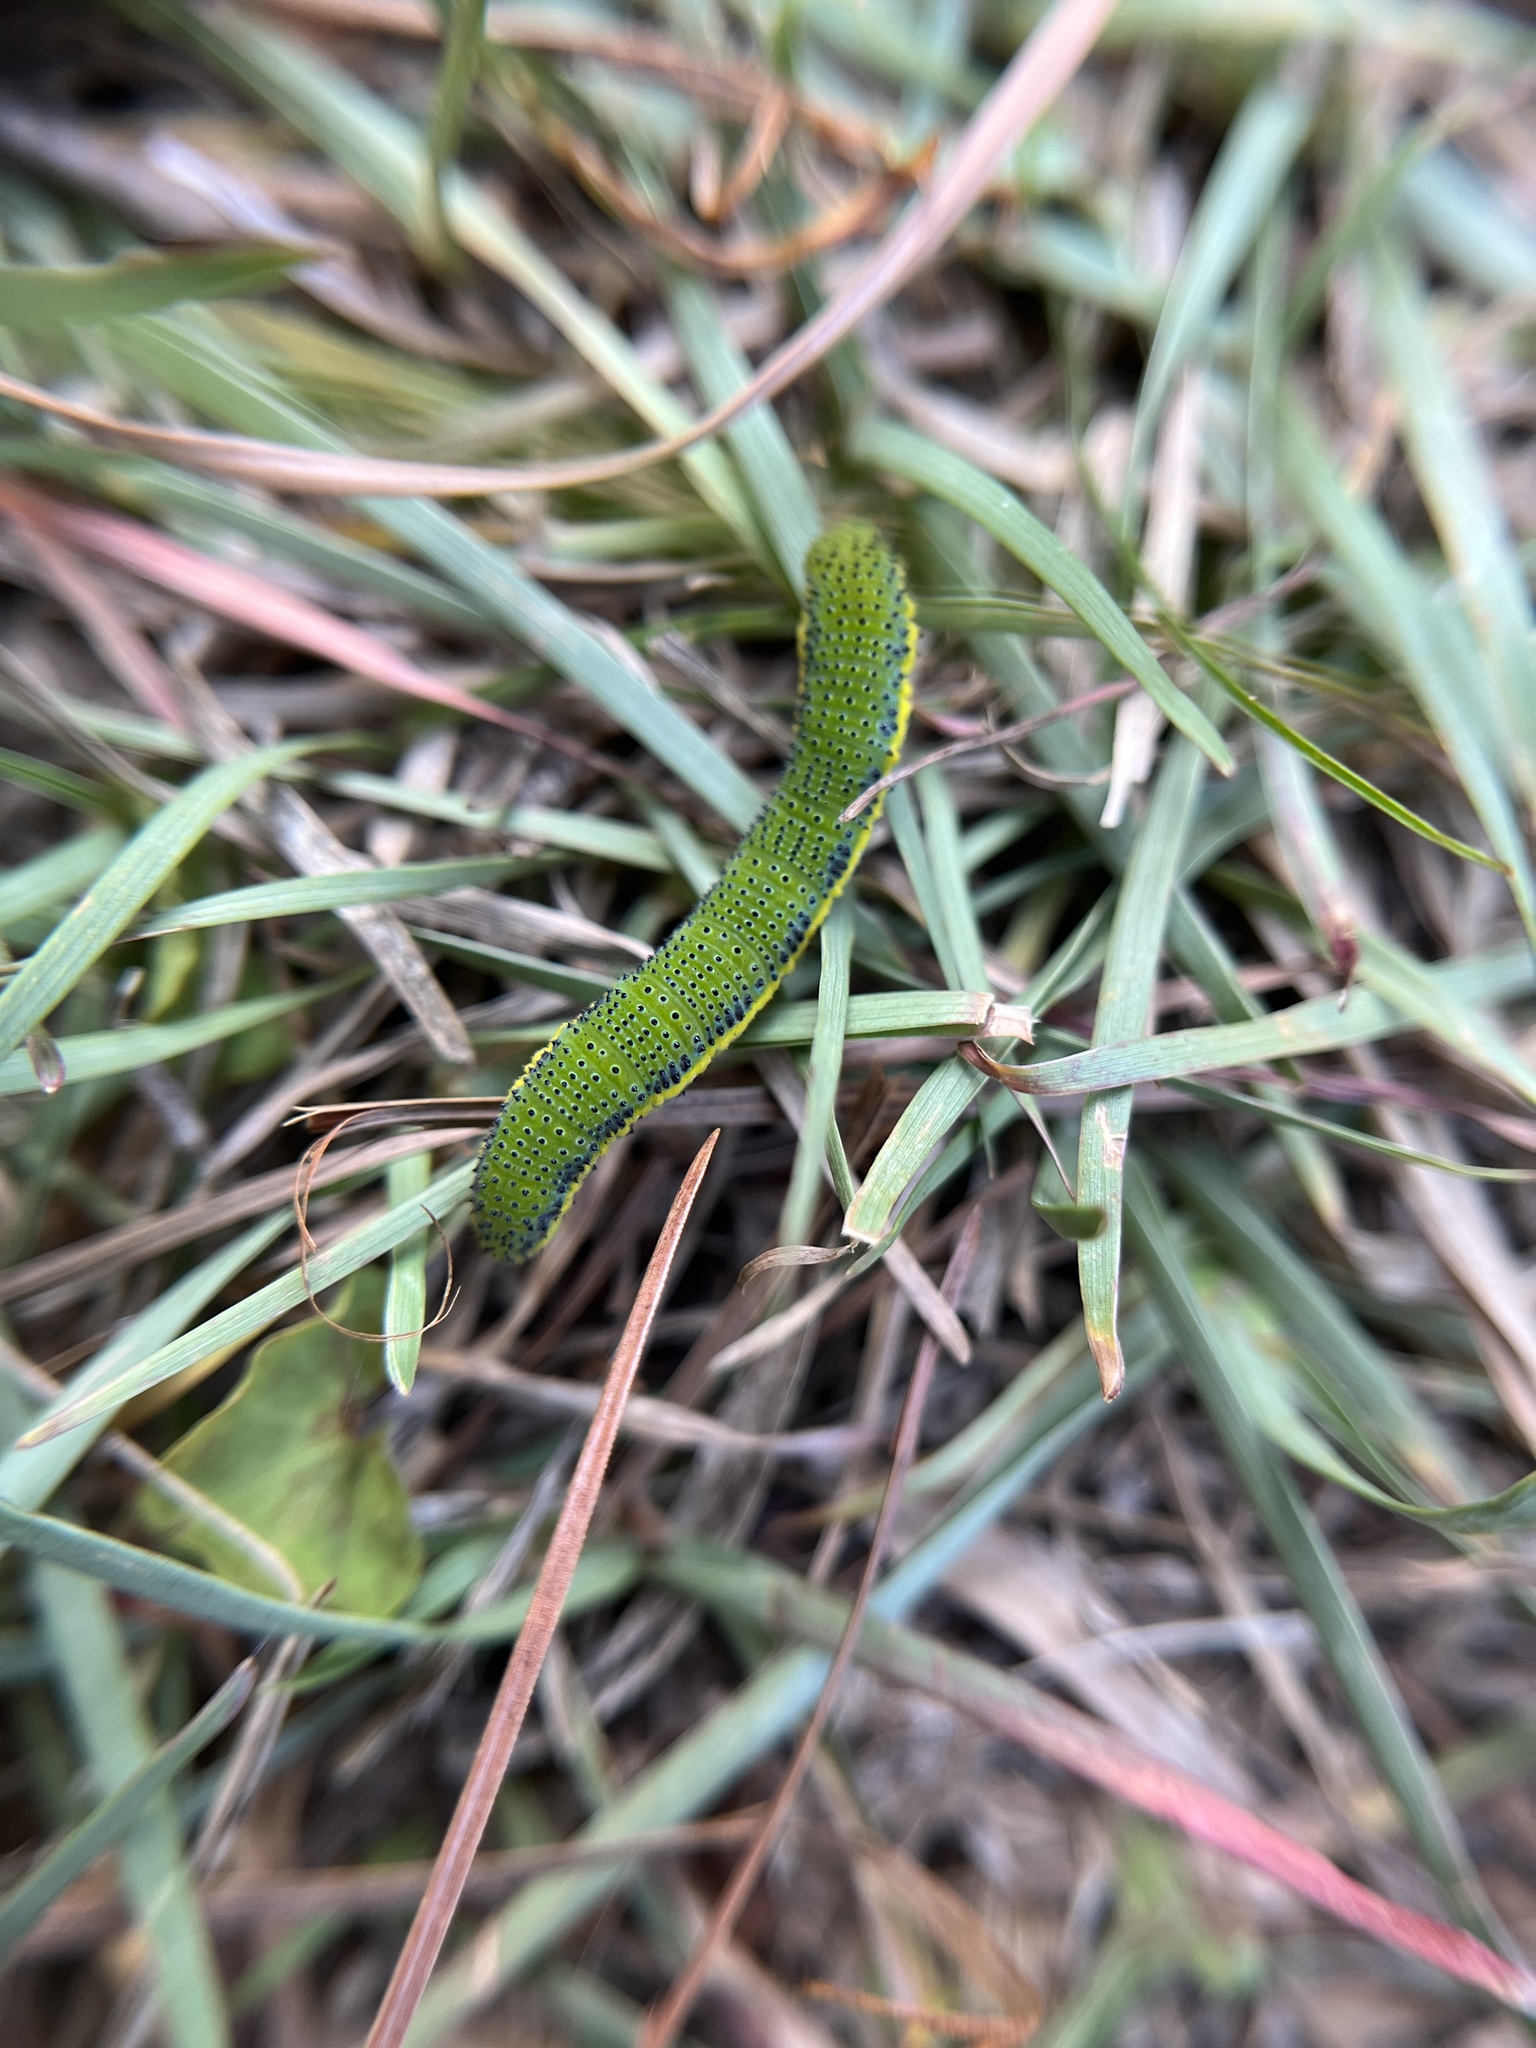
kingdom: Animalia
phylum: Arthropoda
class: Insecta
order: Lepidoptera
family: Pieridae
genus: Phoebis
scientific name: Phoebis sennae
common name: Cloudless sulphur
